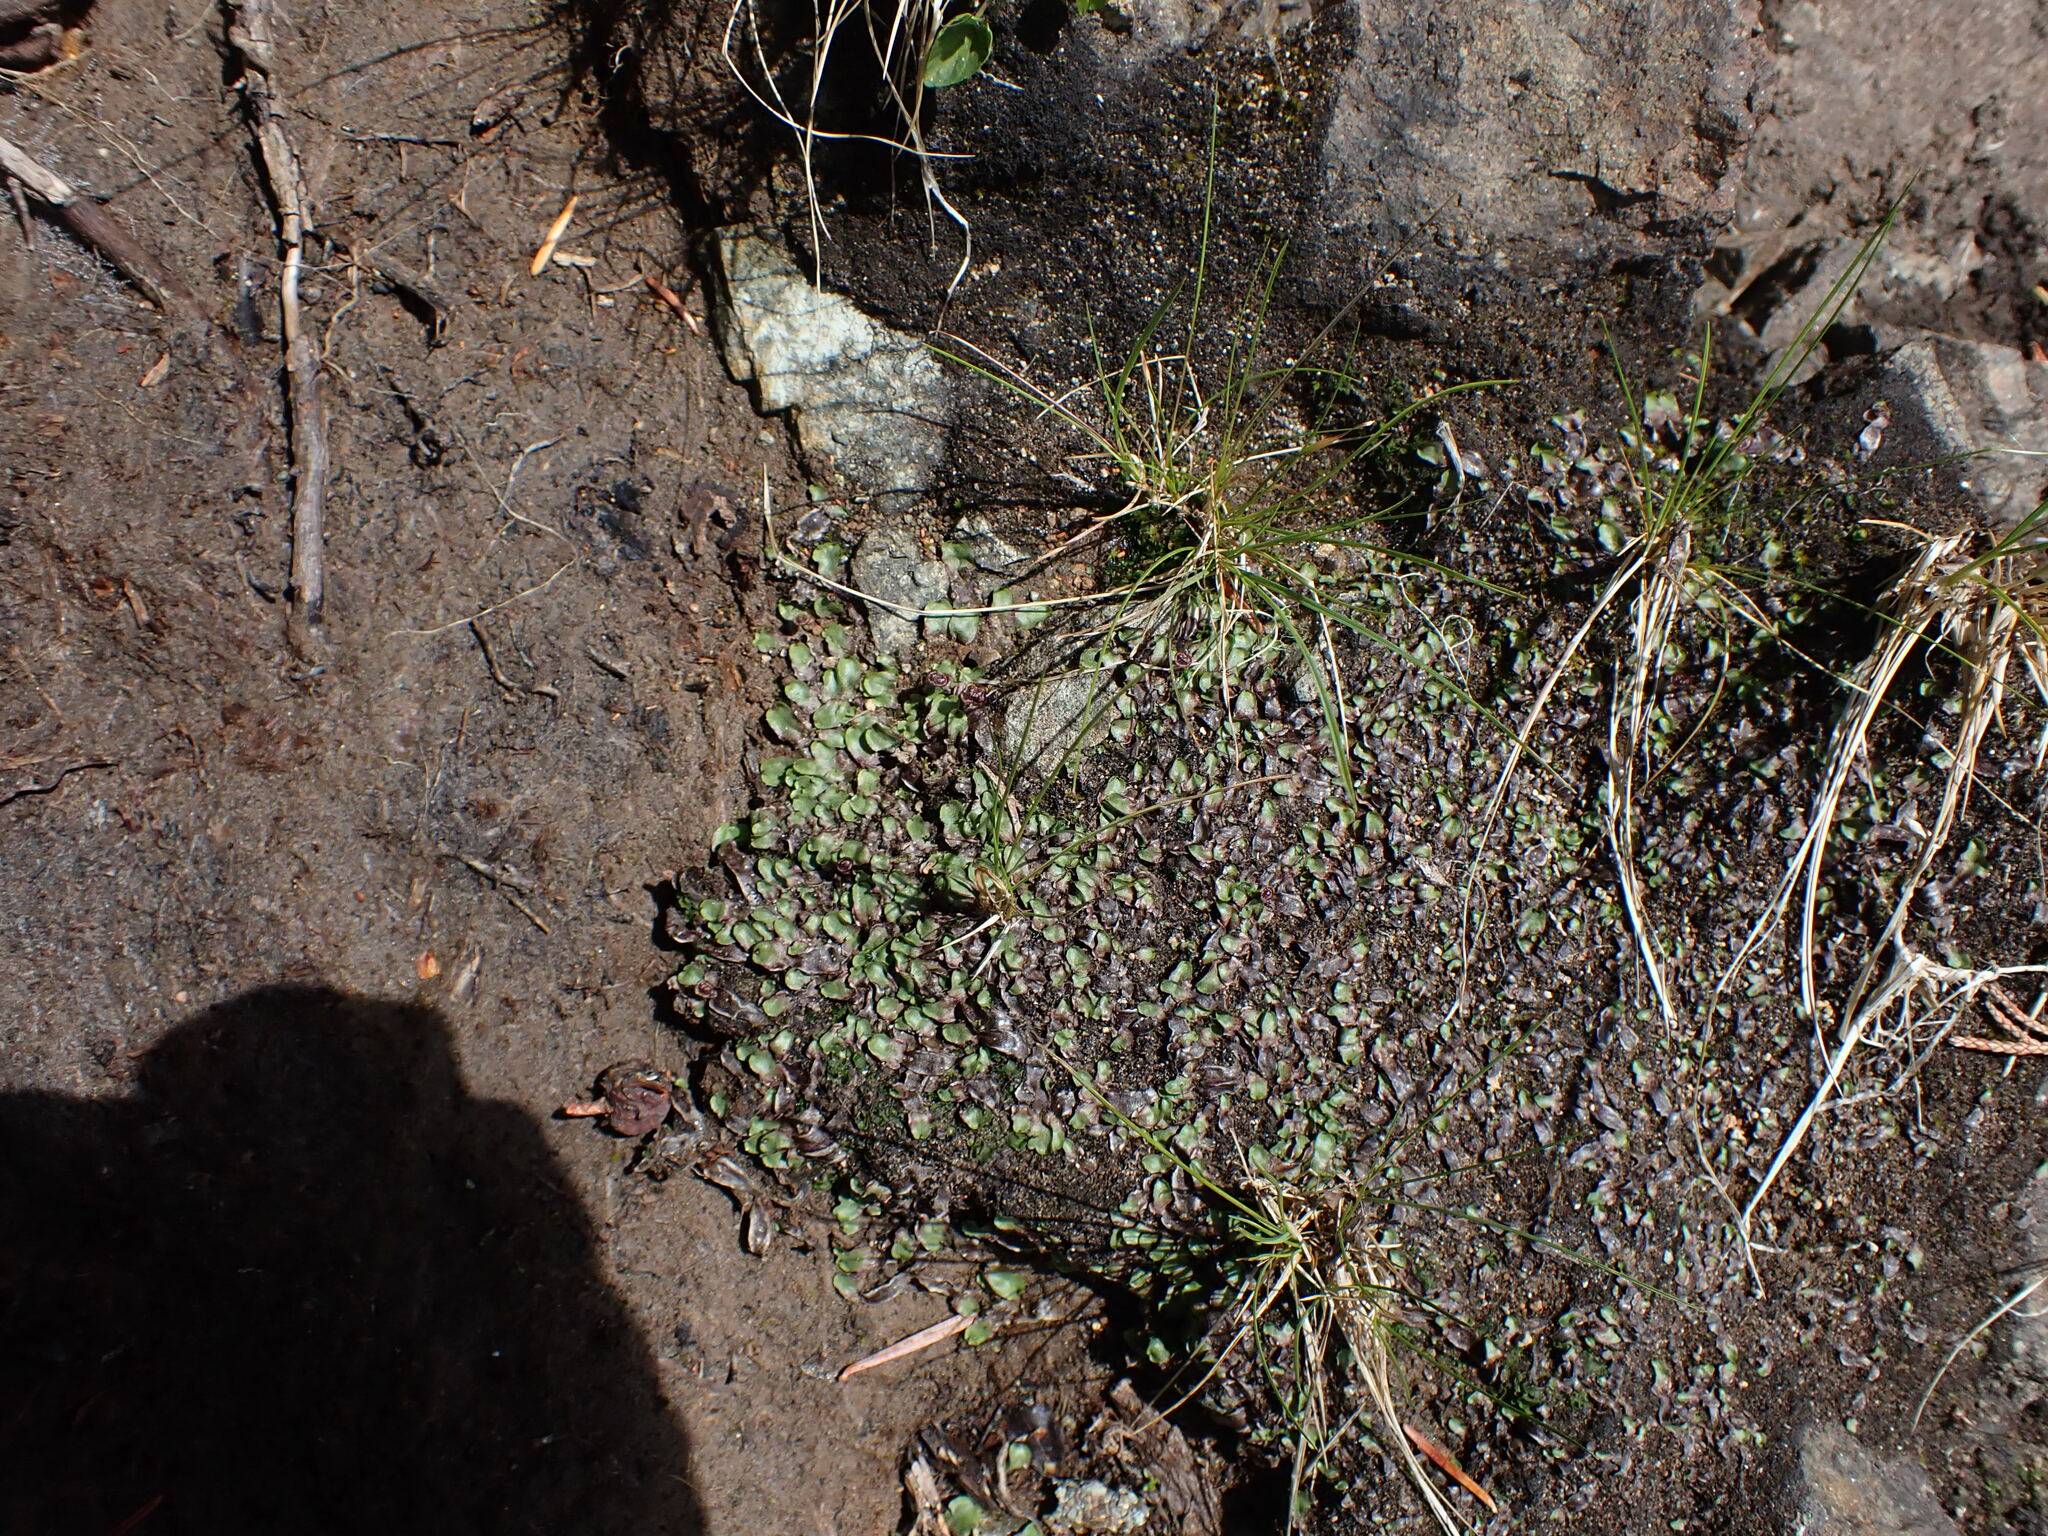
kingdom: Plantae
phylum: Marchantiophyta
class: Marchantiopsida
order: Marchantiales
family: Marchantiaceae
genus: Marchantia
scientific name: Marchantia quadrata
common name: Narrow mushroom-headed liverwort
